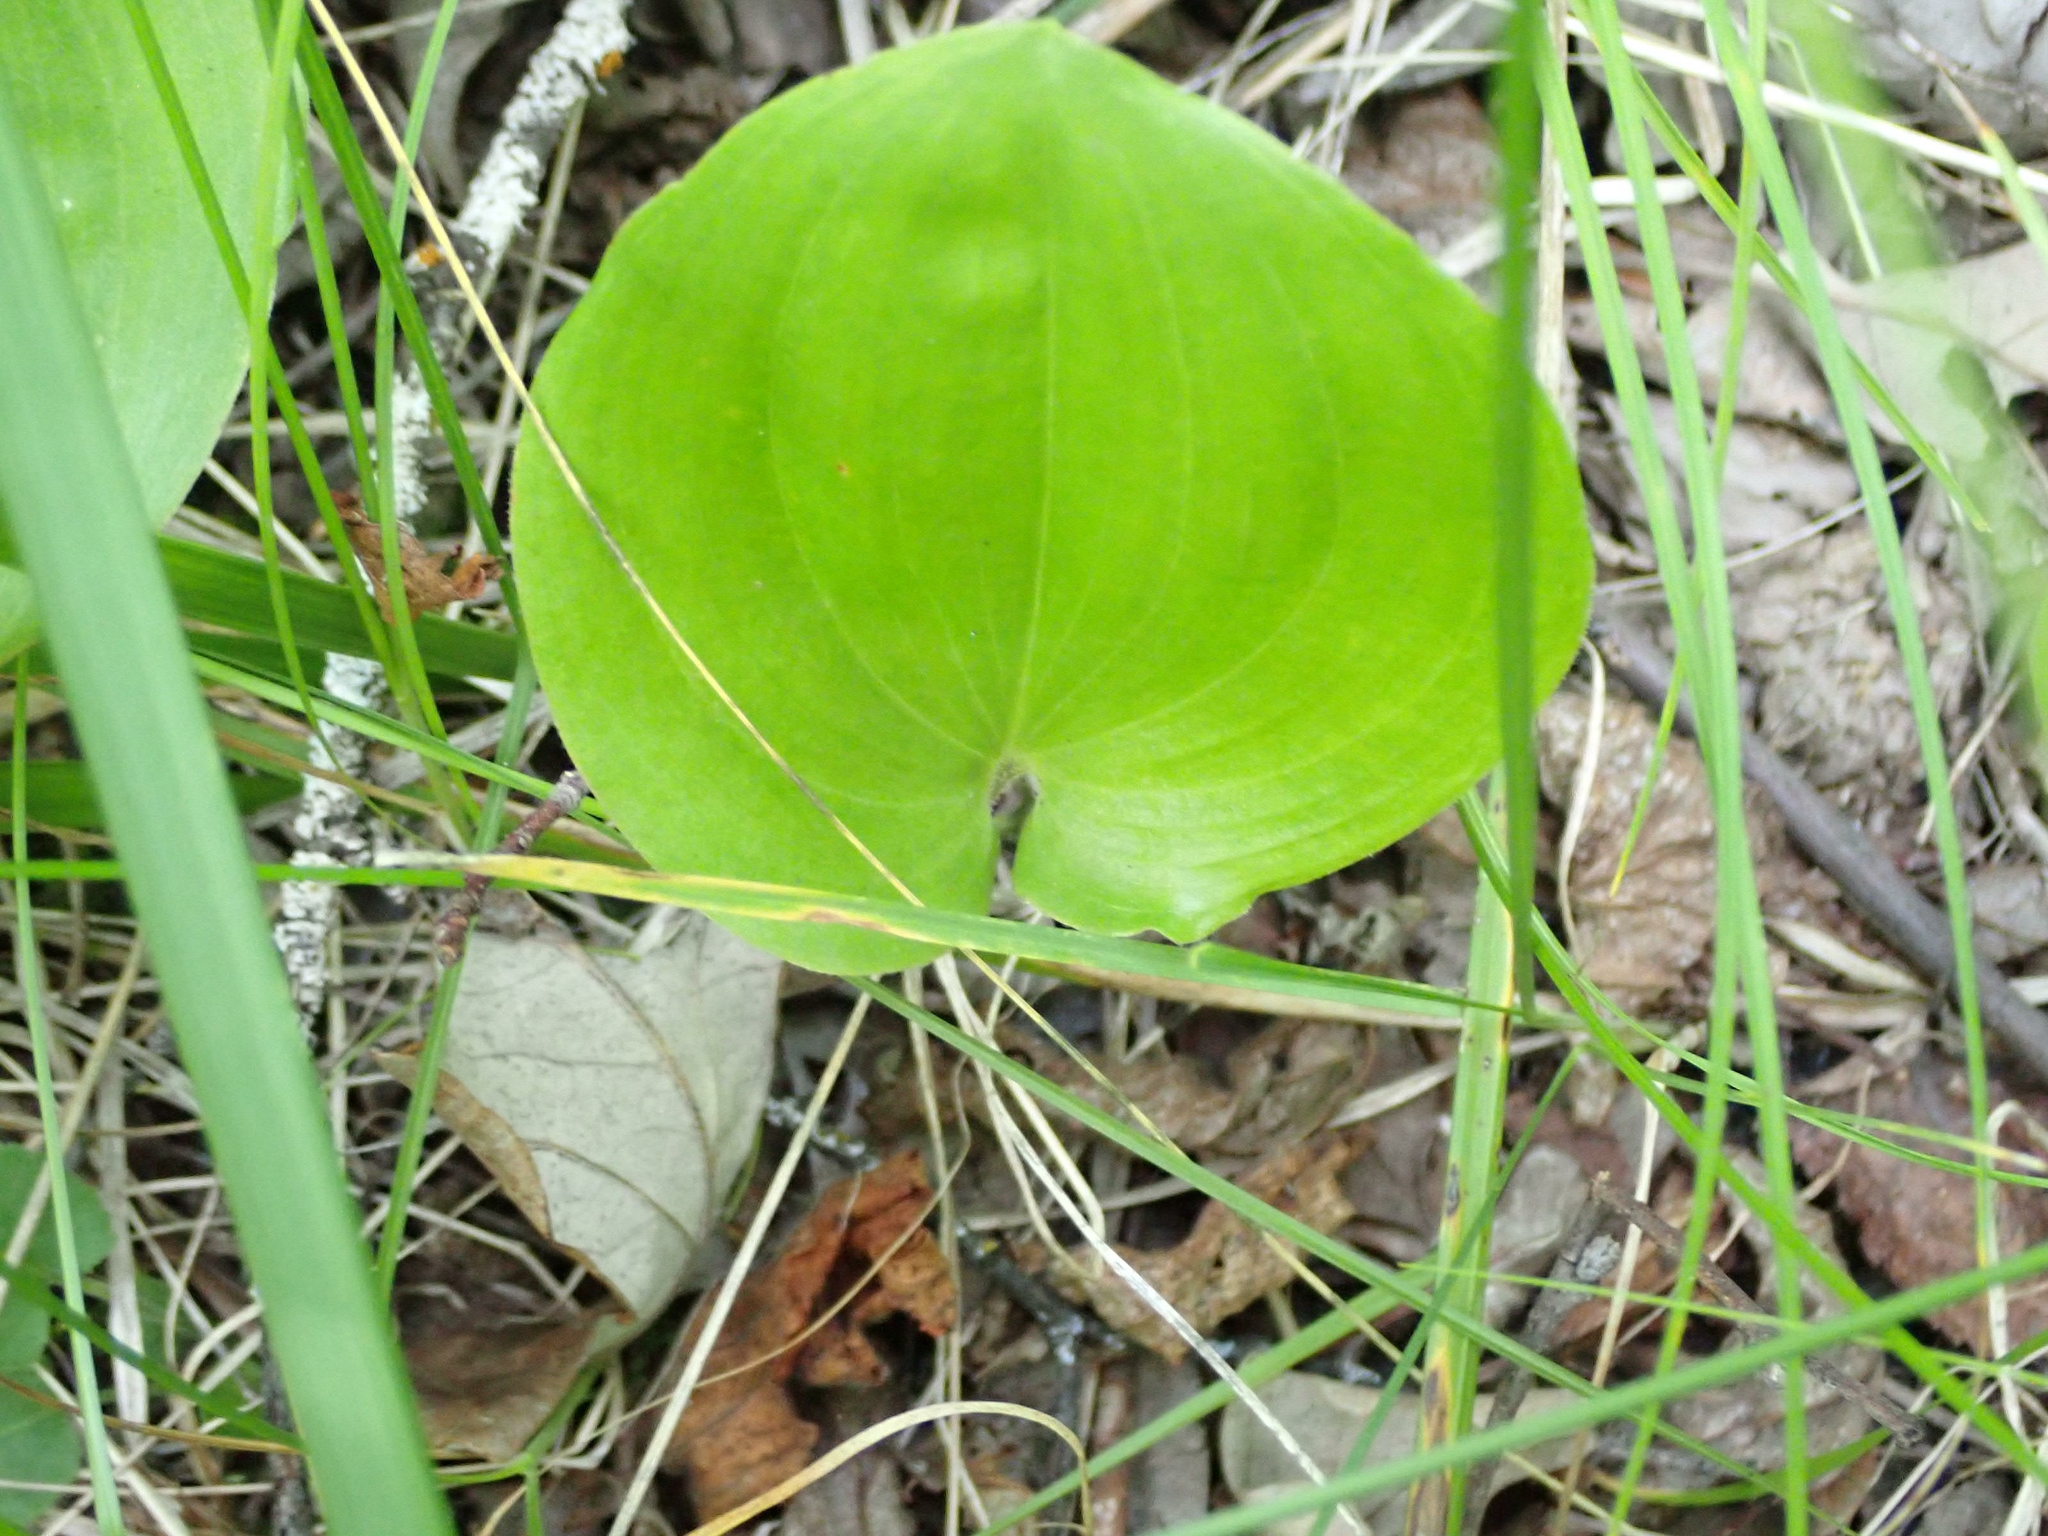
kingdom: Plantae
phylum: Tracheophyta
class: Liliopsida
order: Asparagales
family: Asparagaceae
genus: Maianthemum
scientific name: Maianthemum canadense
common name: False lily-of-the-valley
